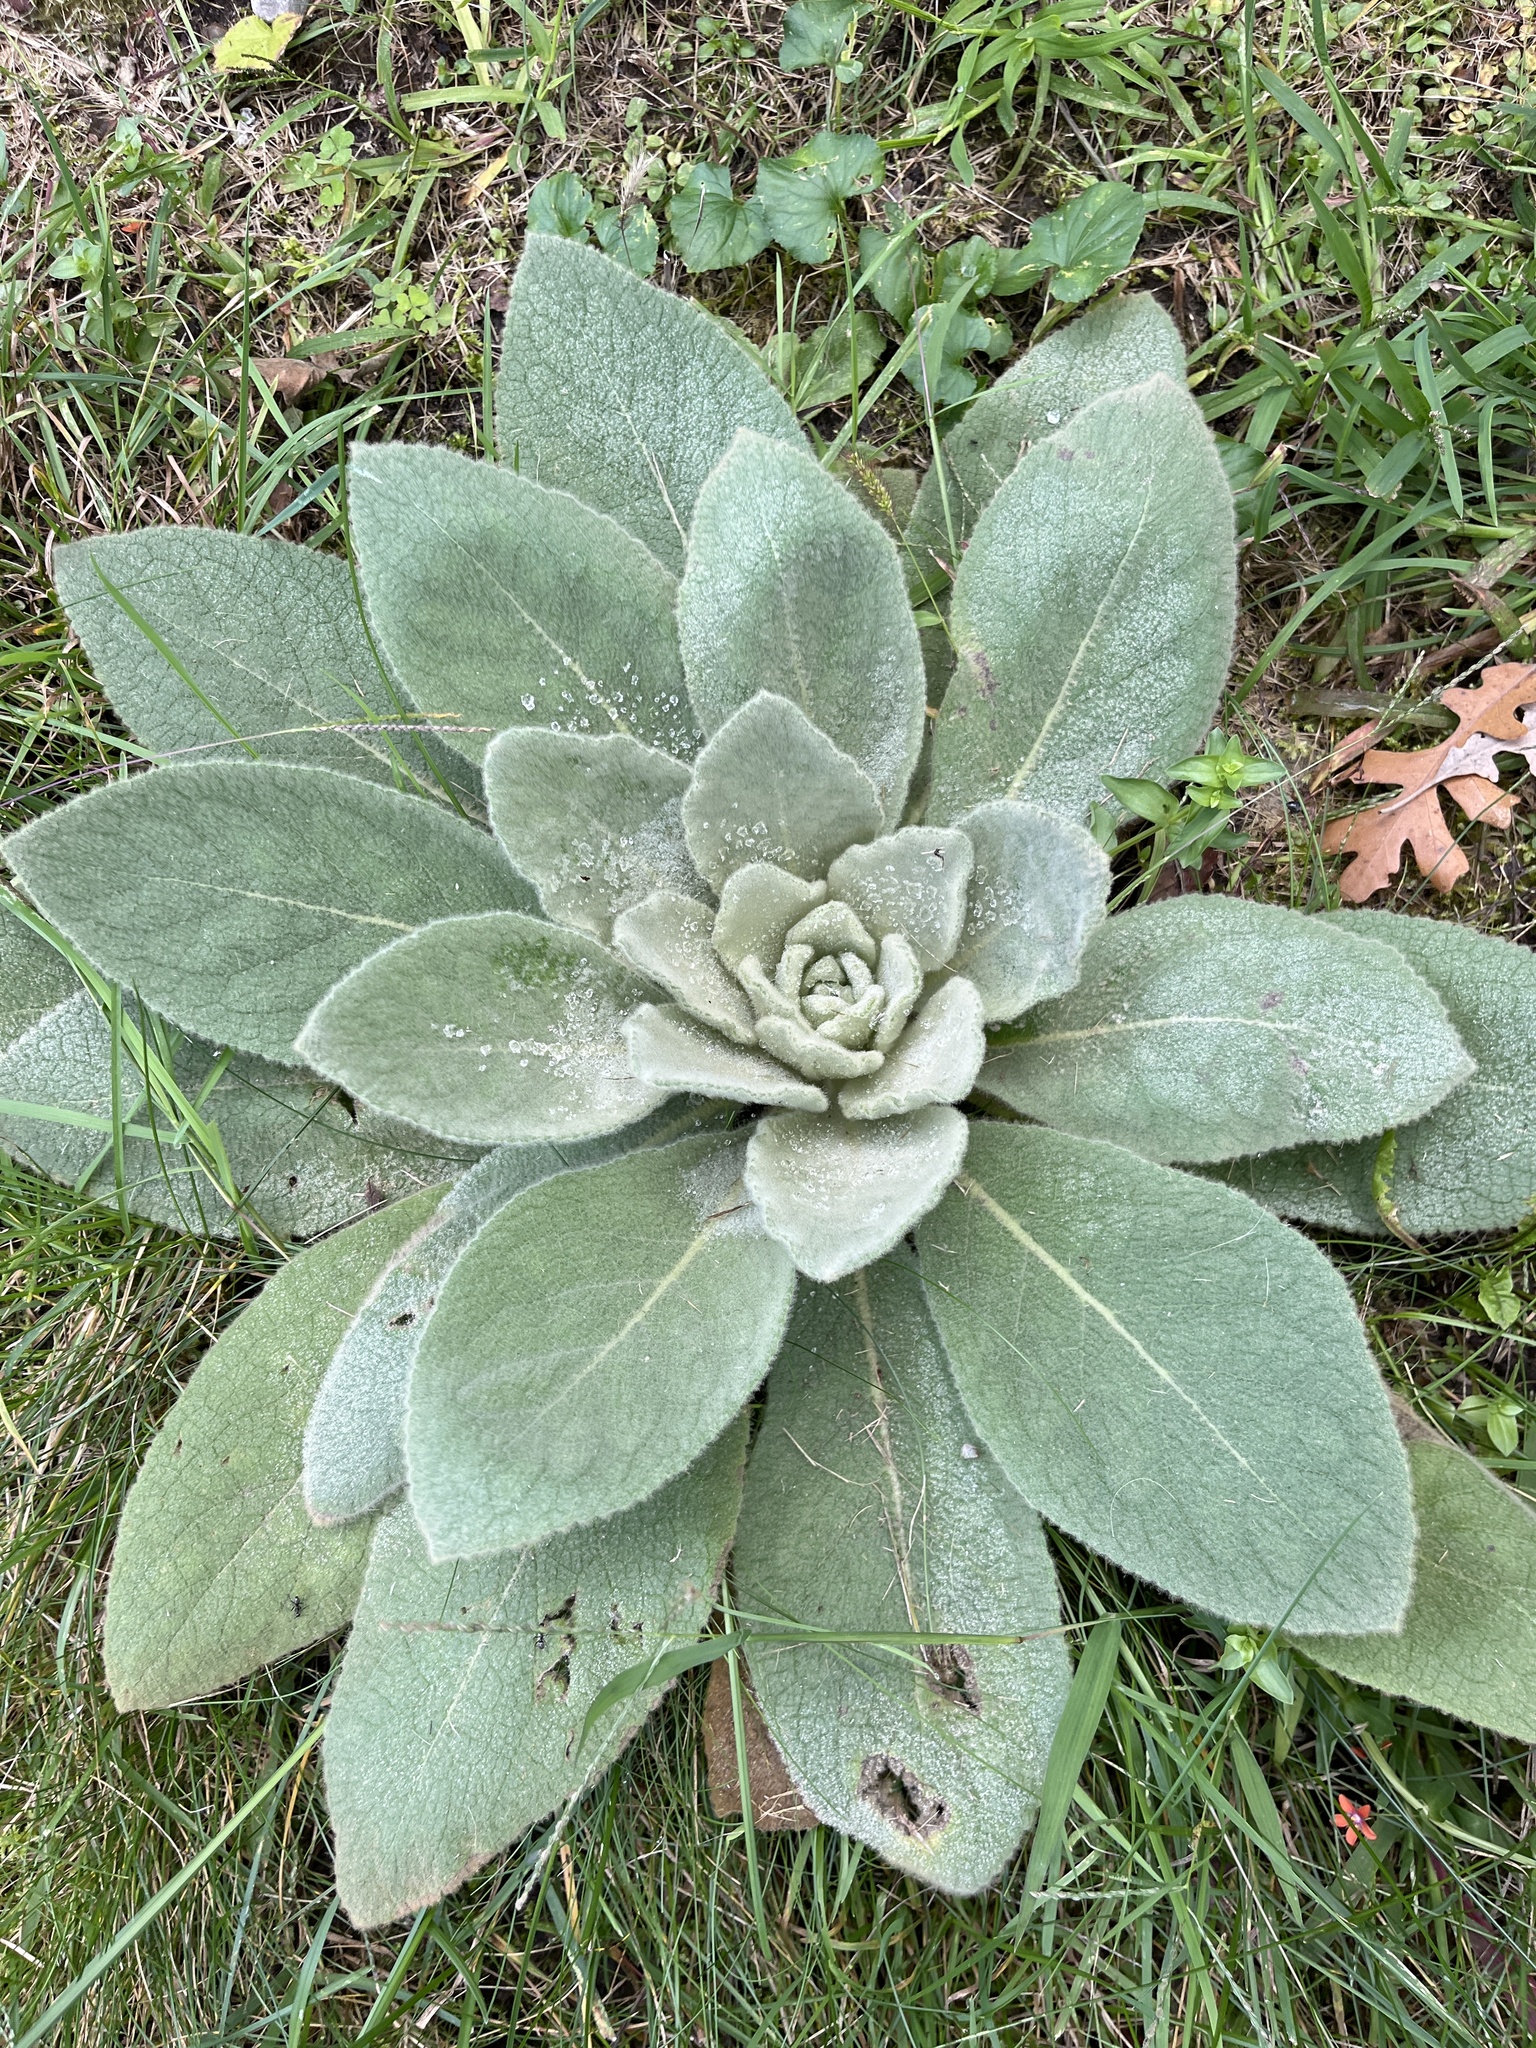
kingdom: Plantae
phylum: Tracheophyta
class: Magnoliopsida
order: Lamiales
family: Scrophulariaceae
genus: Verbascum
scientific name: Verbascum thapsus
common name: Common mullein
